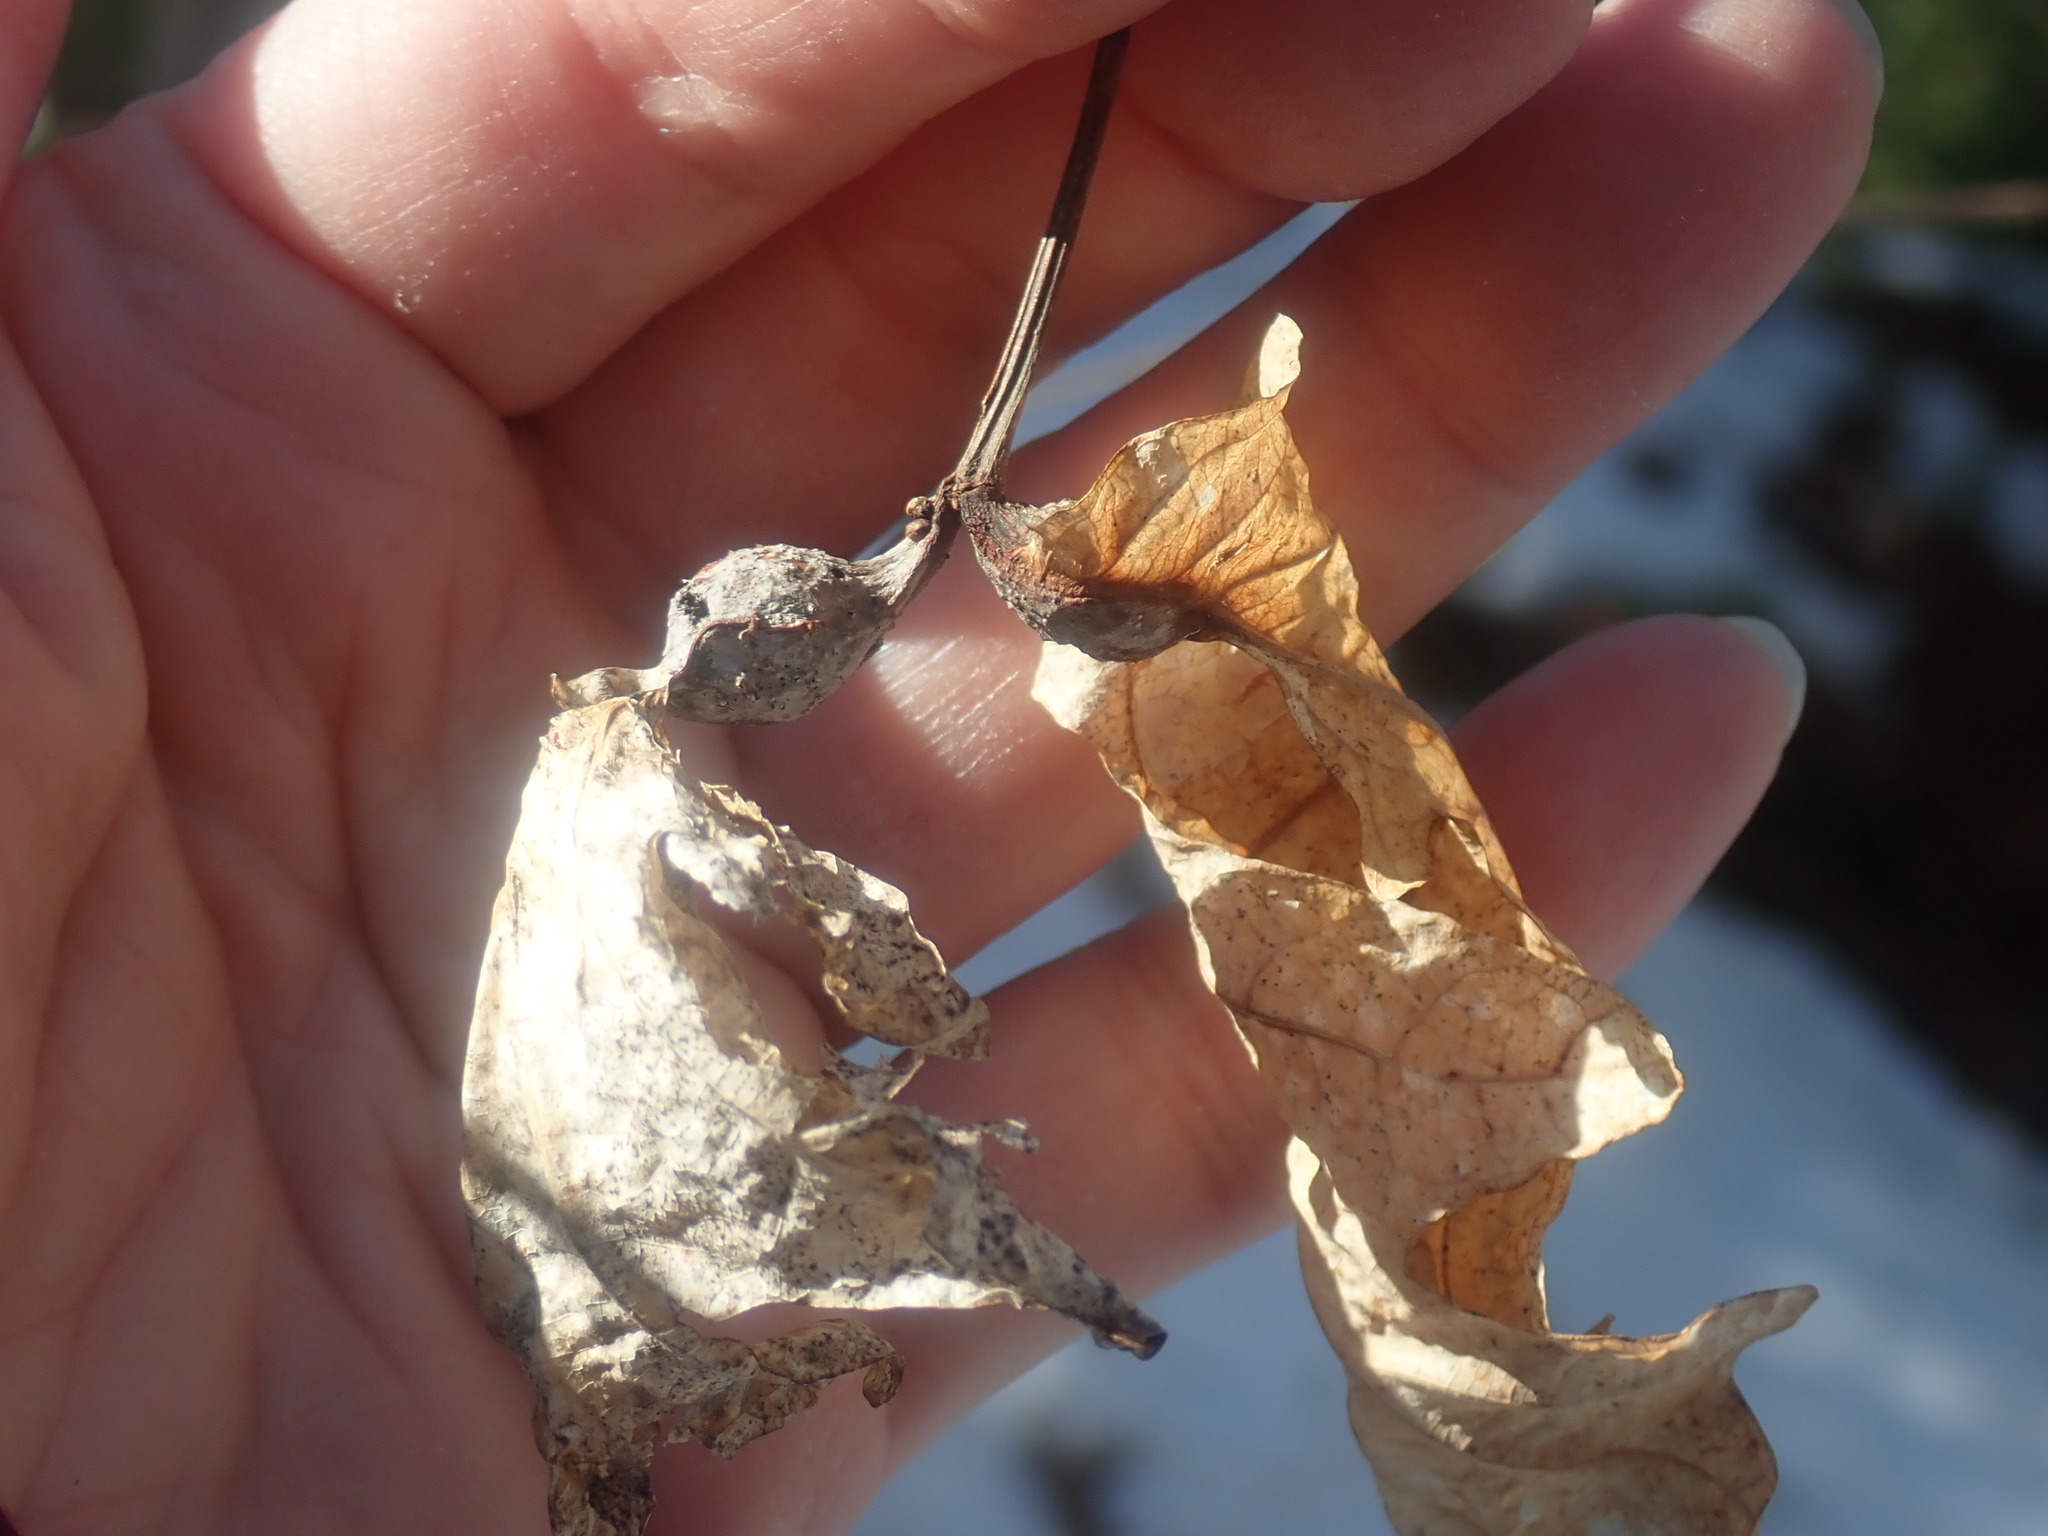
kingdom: Animalia
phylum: Arthropoda
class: Insecta
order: Hymenoptera
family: Cynipidae
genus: Andricus
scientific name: Andricus
